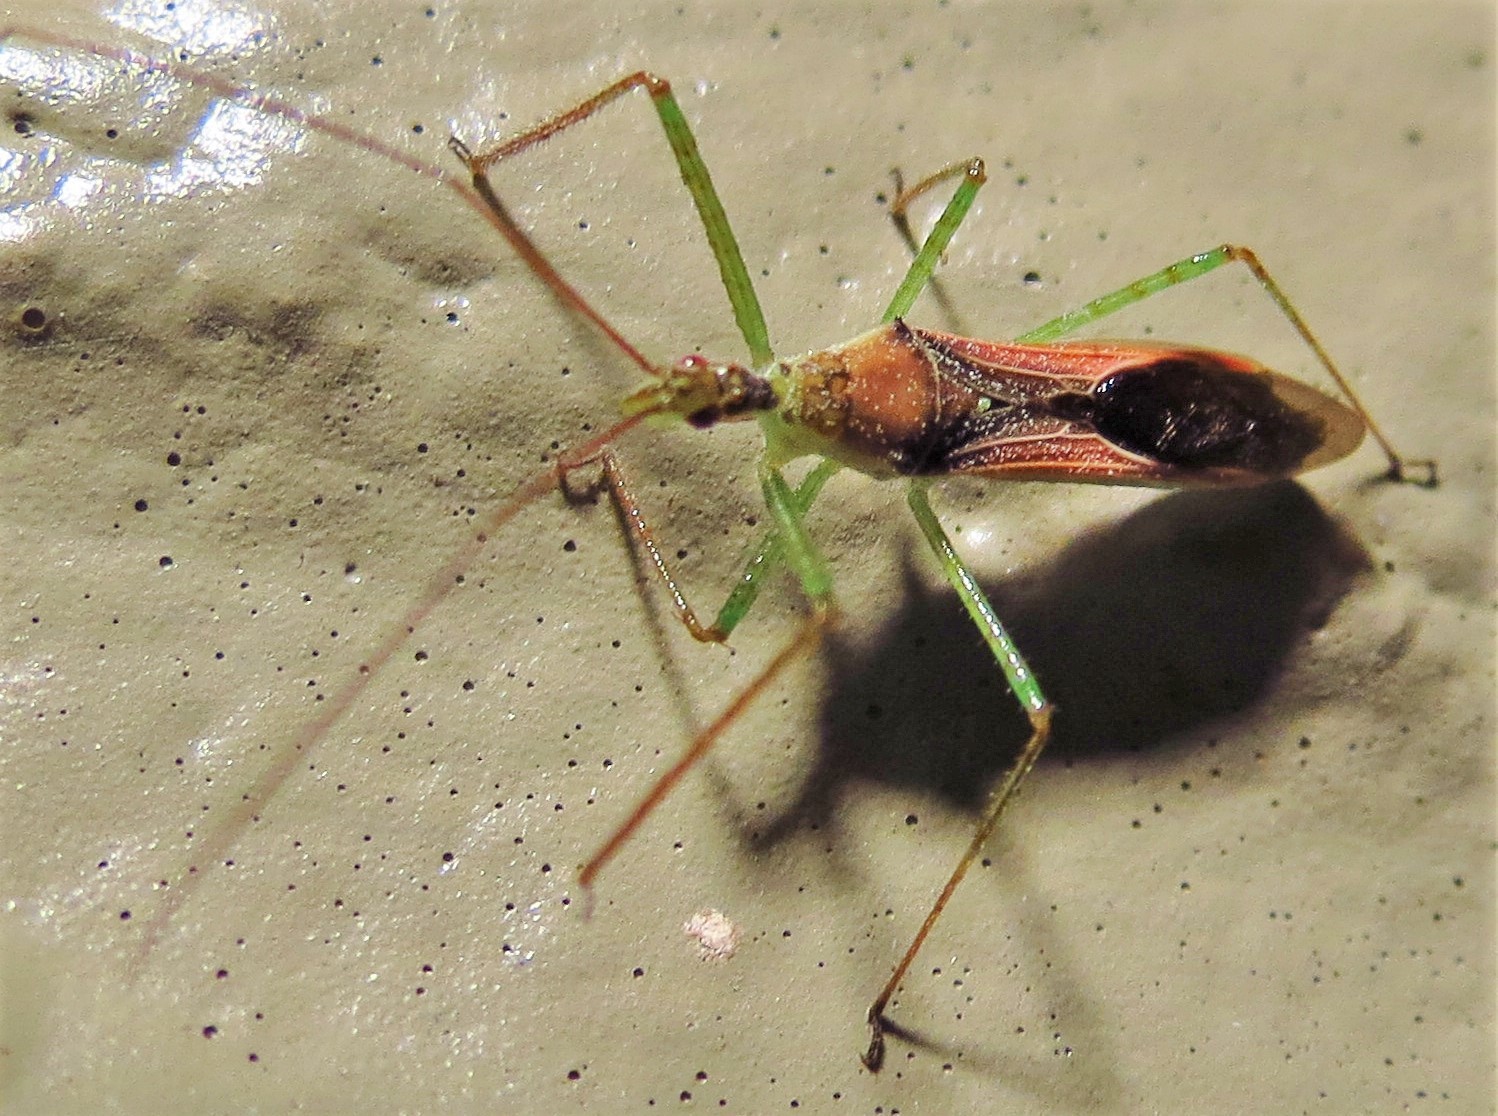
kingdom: Animalia
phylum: Arthropoda
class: Insecta
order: Hemiptera
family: Reduviidae
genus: Zelus
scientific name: Zelus renardii
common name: Assassin bug
